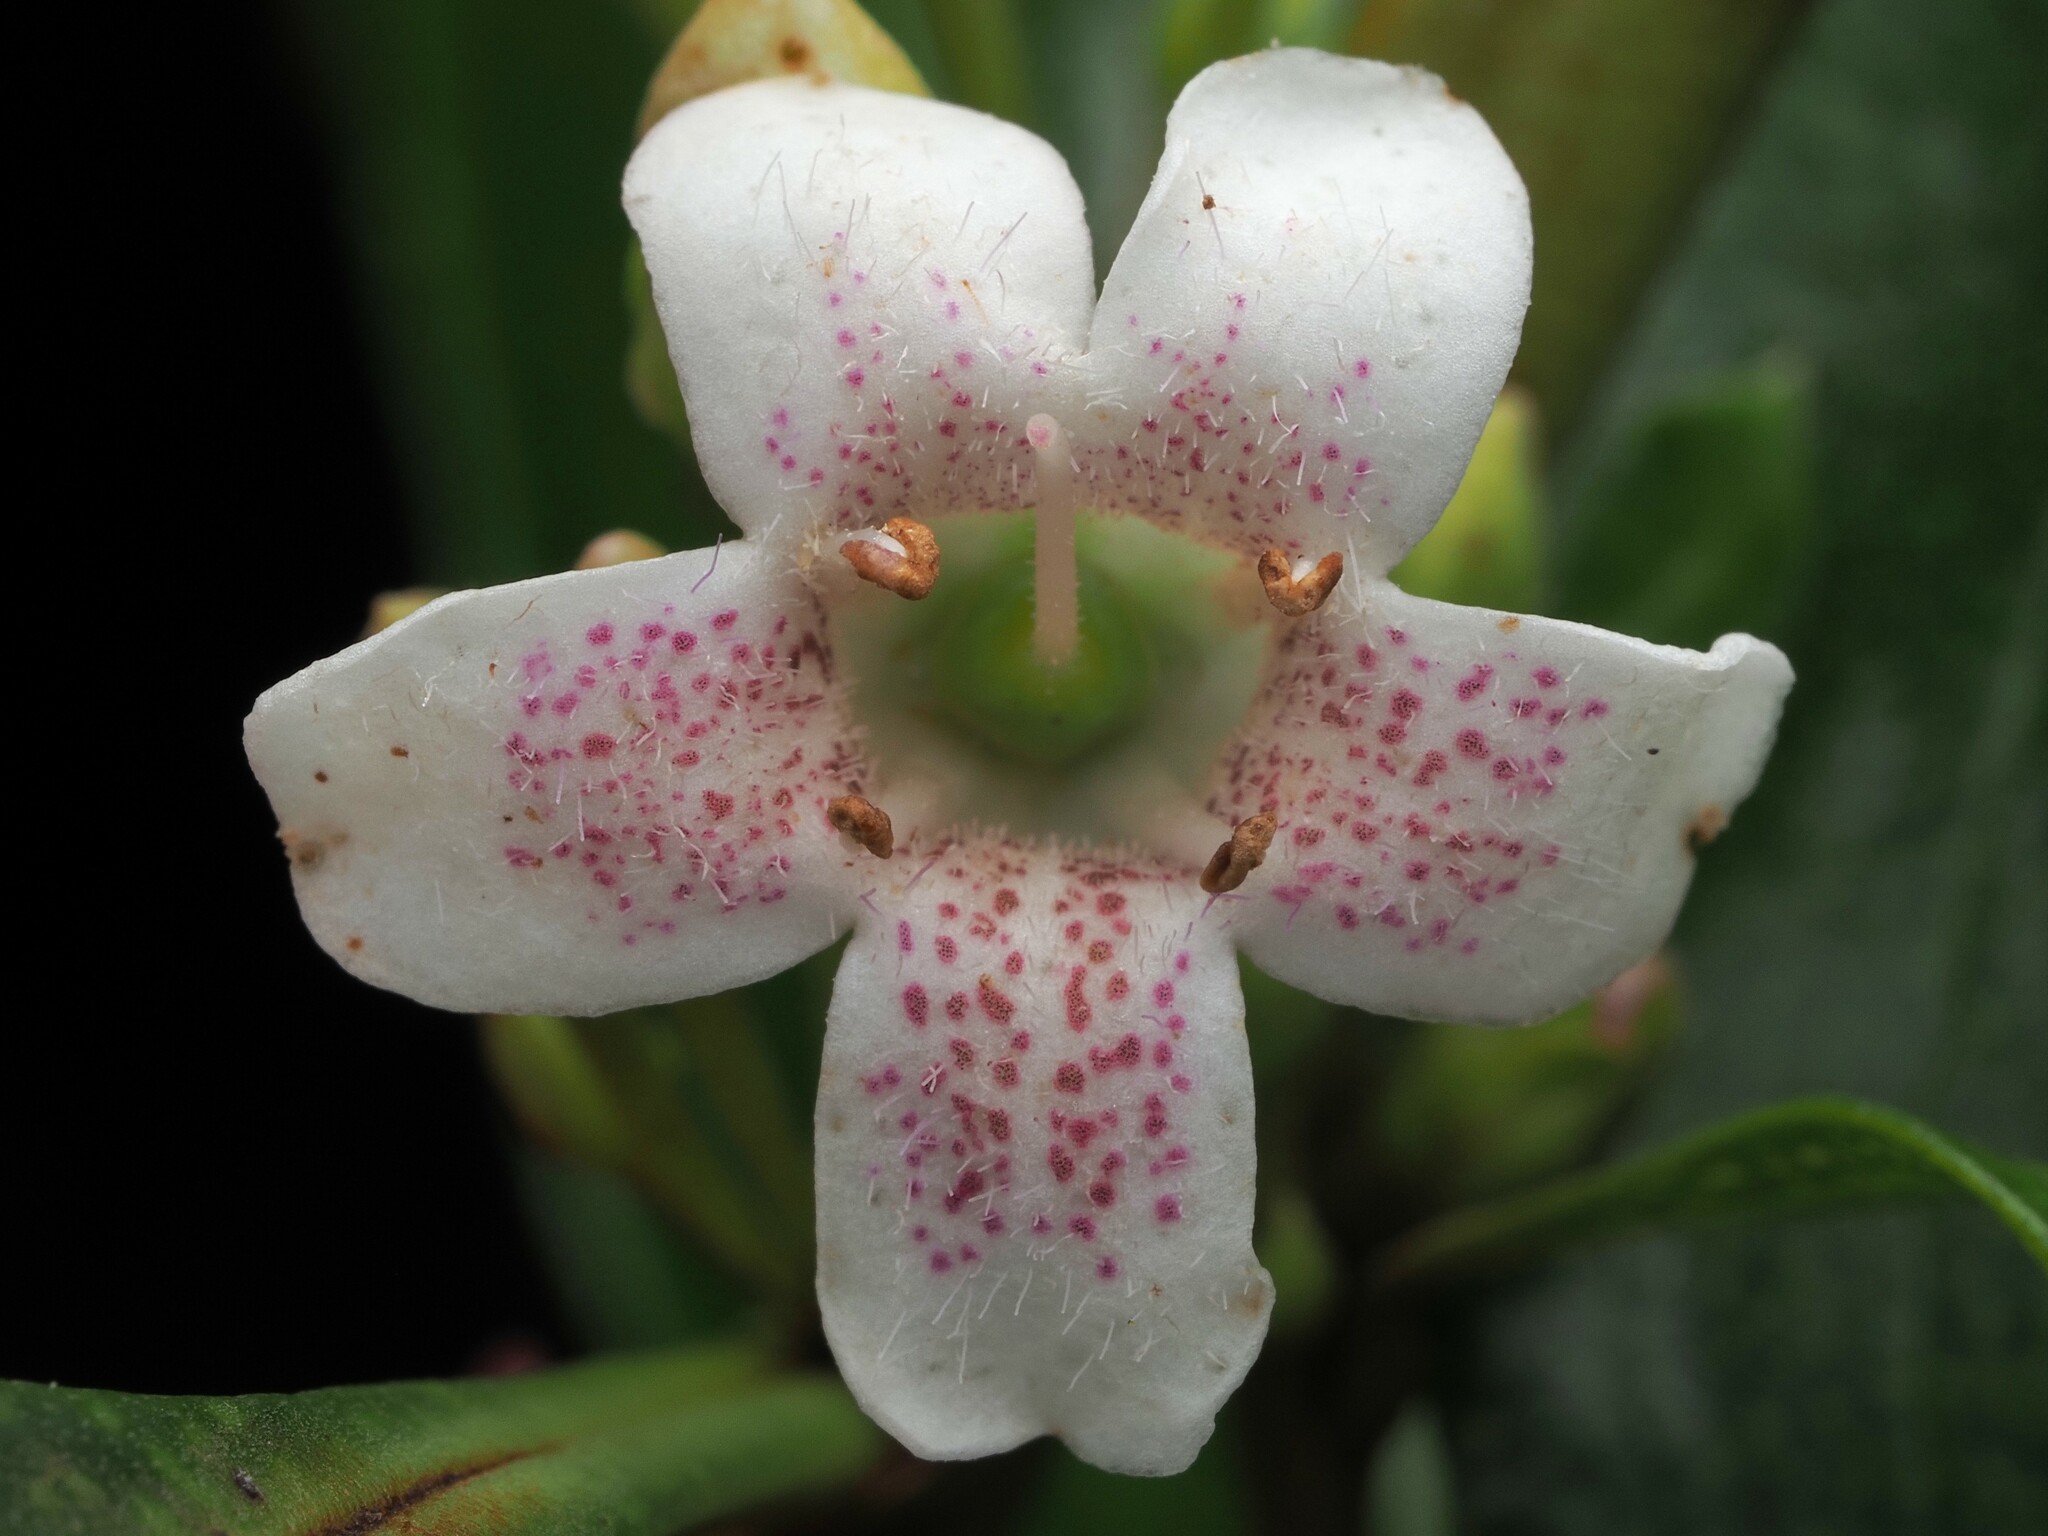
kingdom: Plantae
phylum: Tracheophyta
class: Magnoliopsida
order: Lamiales
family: Scrophulariaceae
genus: Myoporum
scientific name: Myoporum laetum
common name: Ngaio tree
